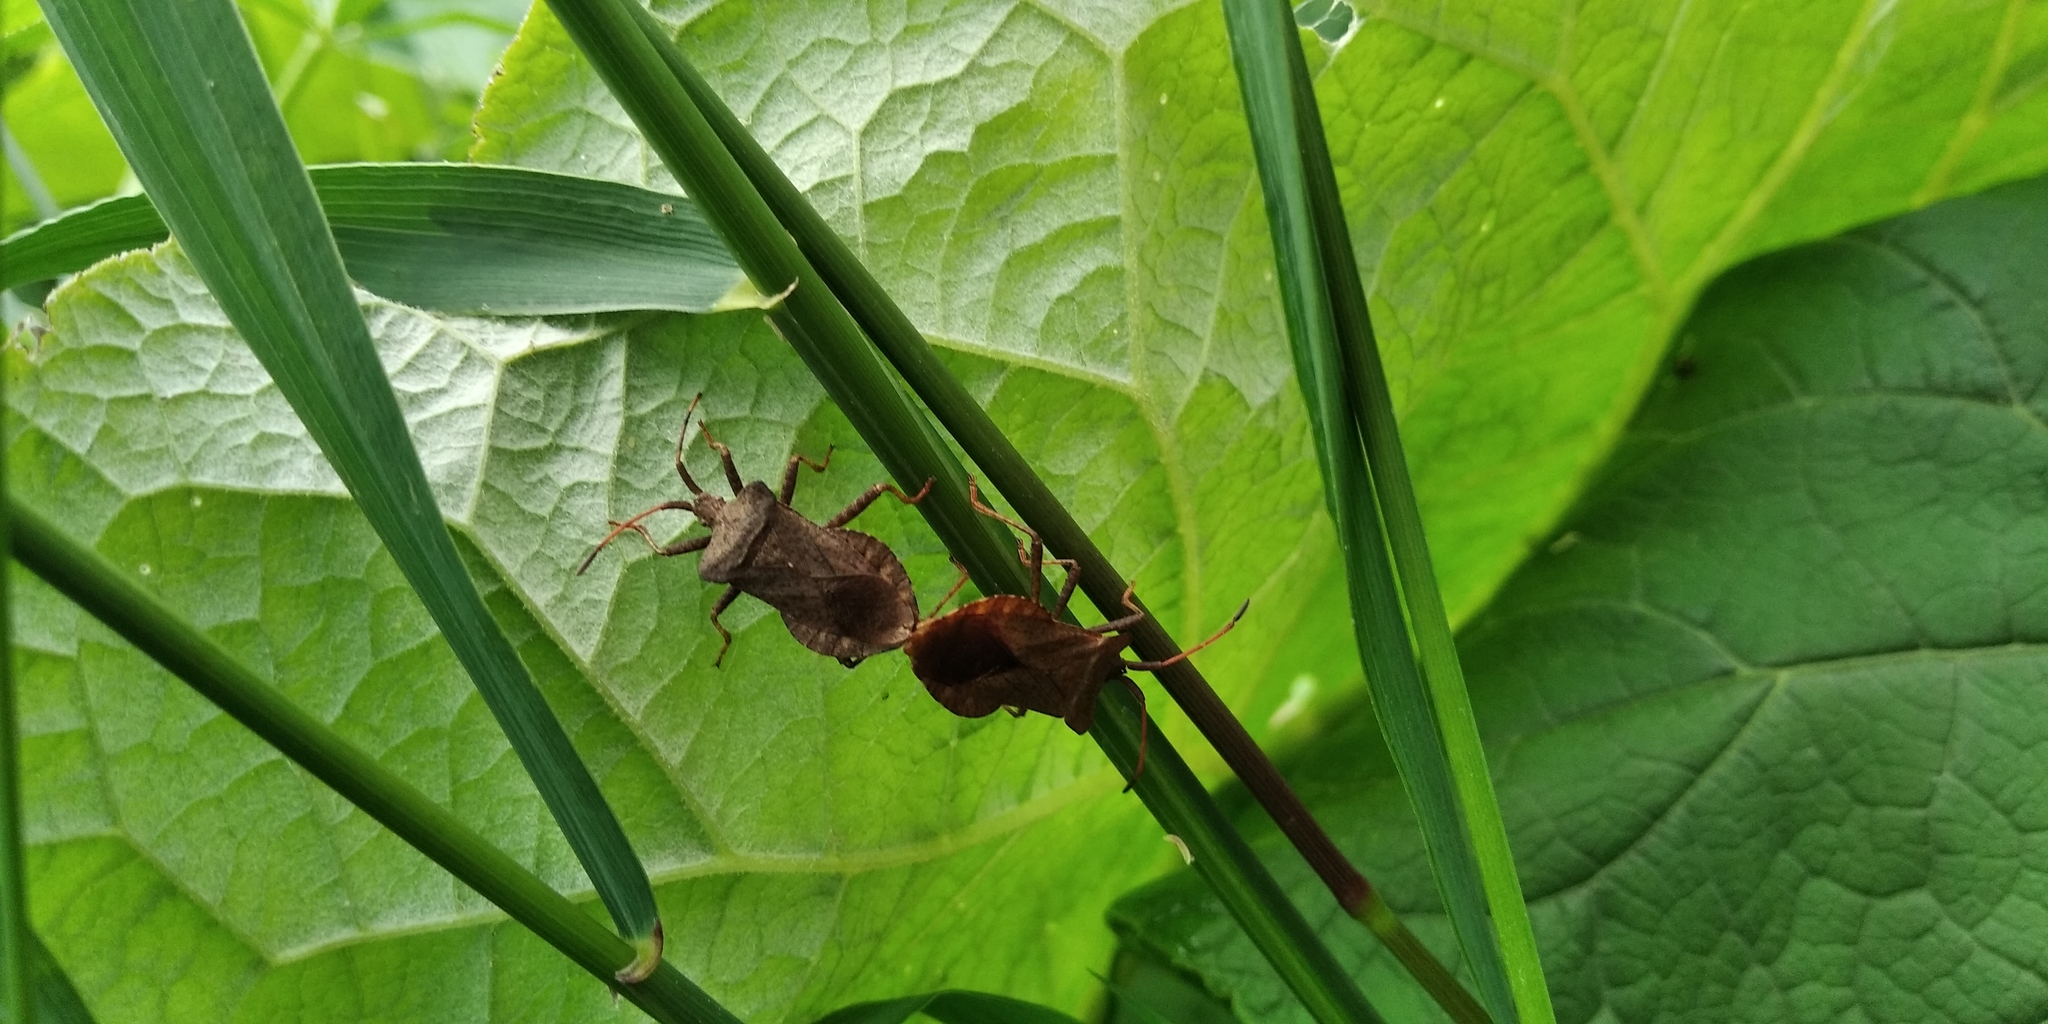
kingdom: Animalia
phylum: Arthropoda
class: Insecta
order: Hemiptera
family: Coreidae
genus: Coreus
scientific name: Coreus marginatus
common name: Dock bug
